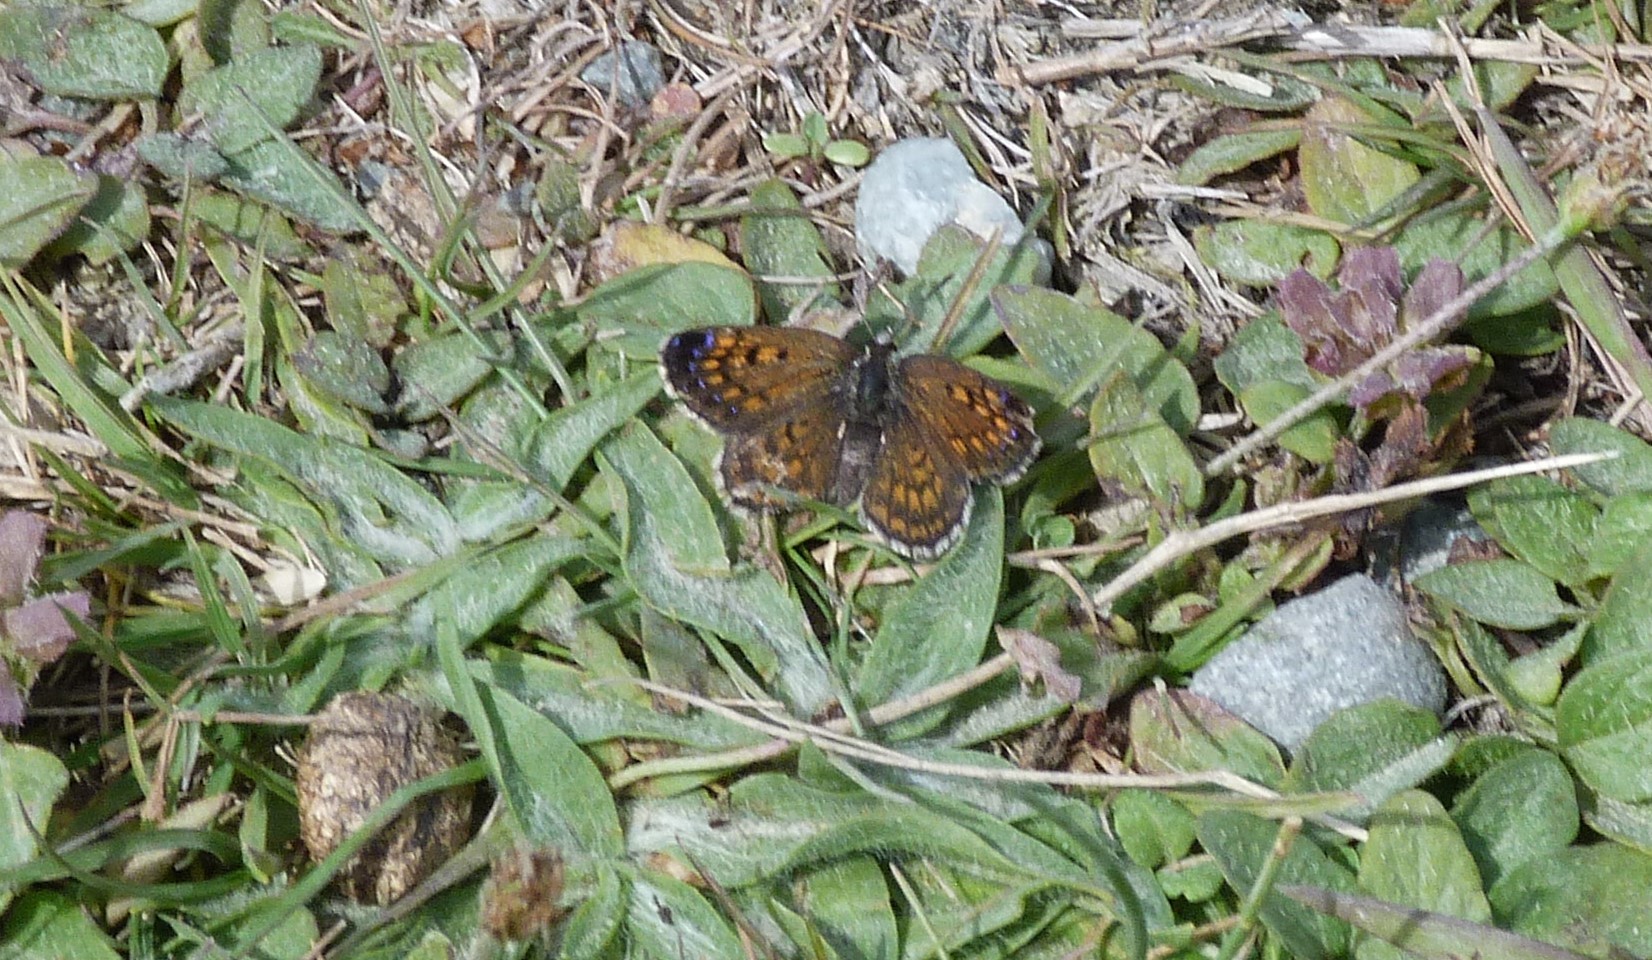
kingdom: Animalia
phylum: Arthropoda
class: Insecta
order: Lepidoptera
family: Lycaenidae
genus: Lycaena
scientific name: Lycaena boldenarum
